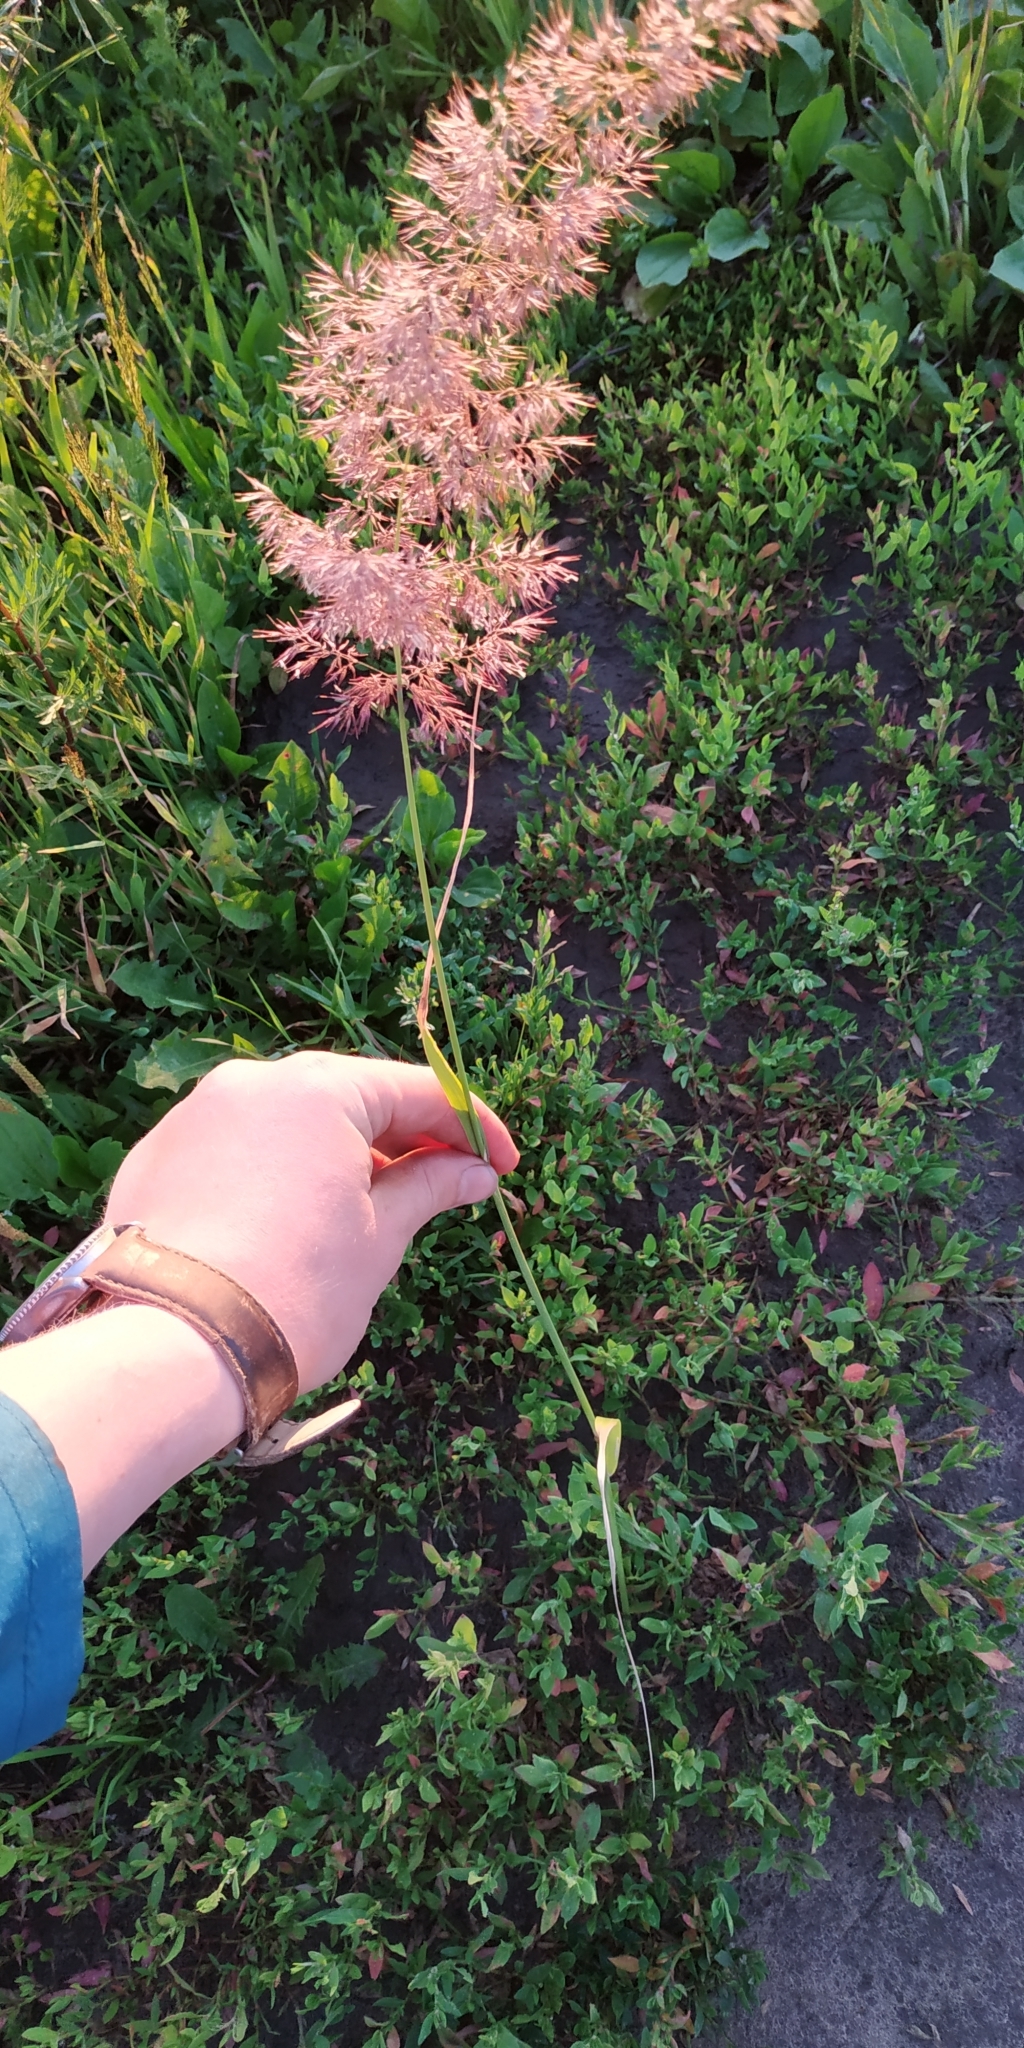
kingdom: Plantae
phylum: Tracheophyta
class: Liliopsida
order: Poales
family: Poaceae
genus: Calamagrostis
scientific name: Calamagrostis epigejos
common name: Wood small-reed
